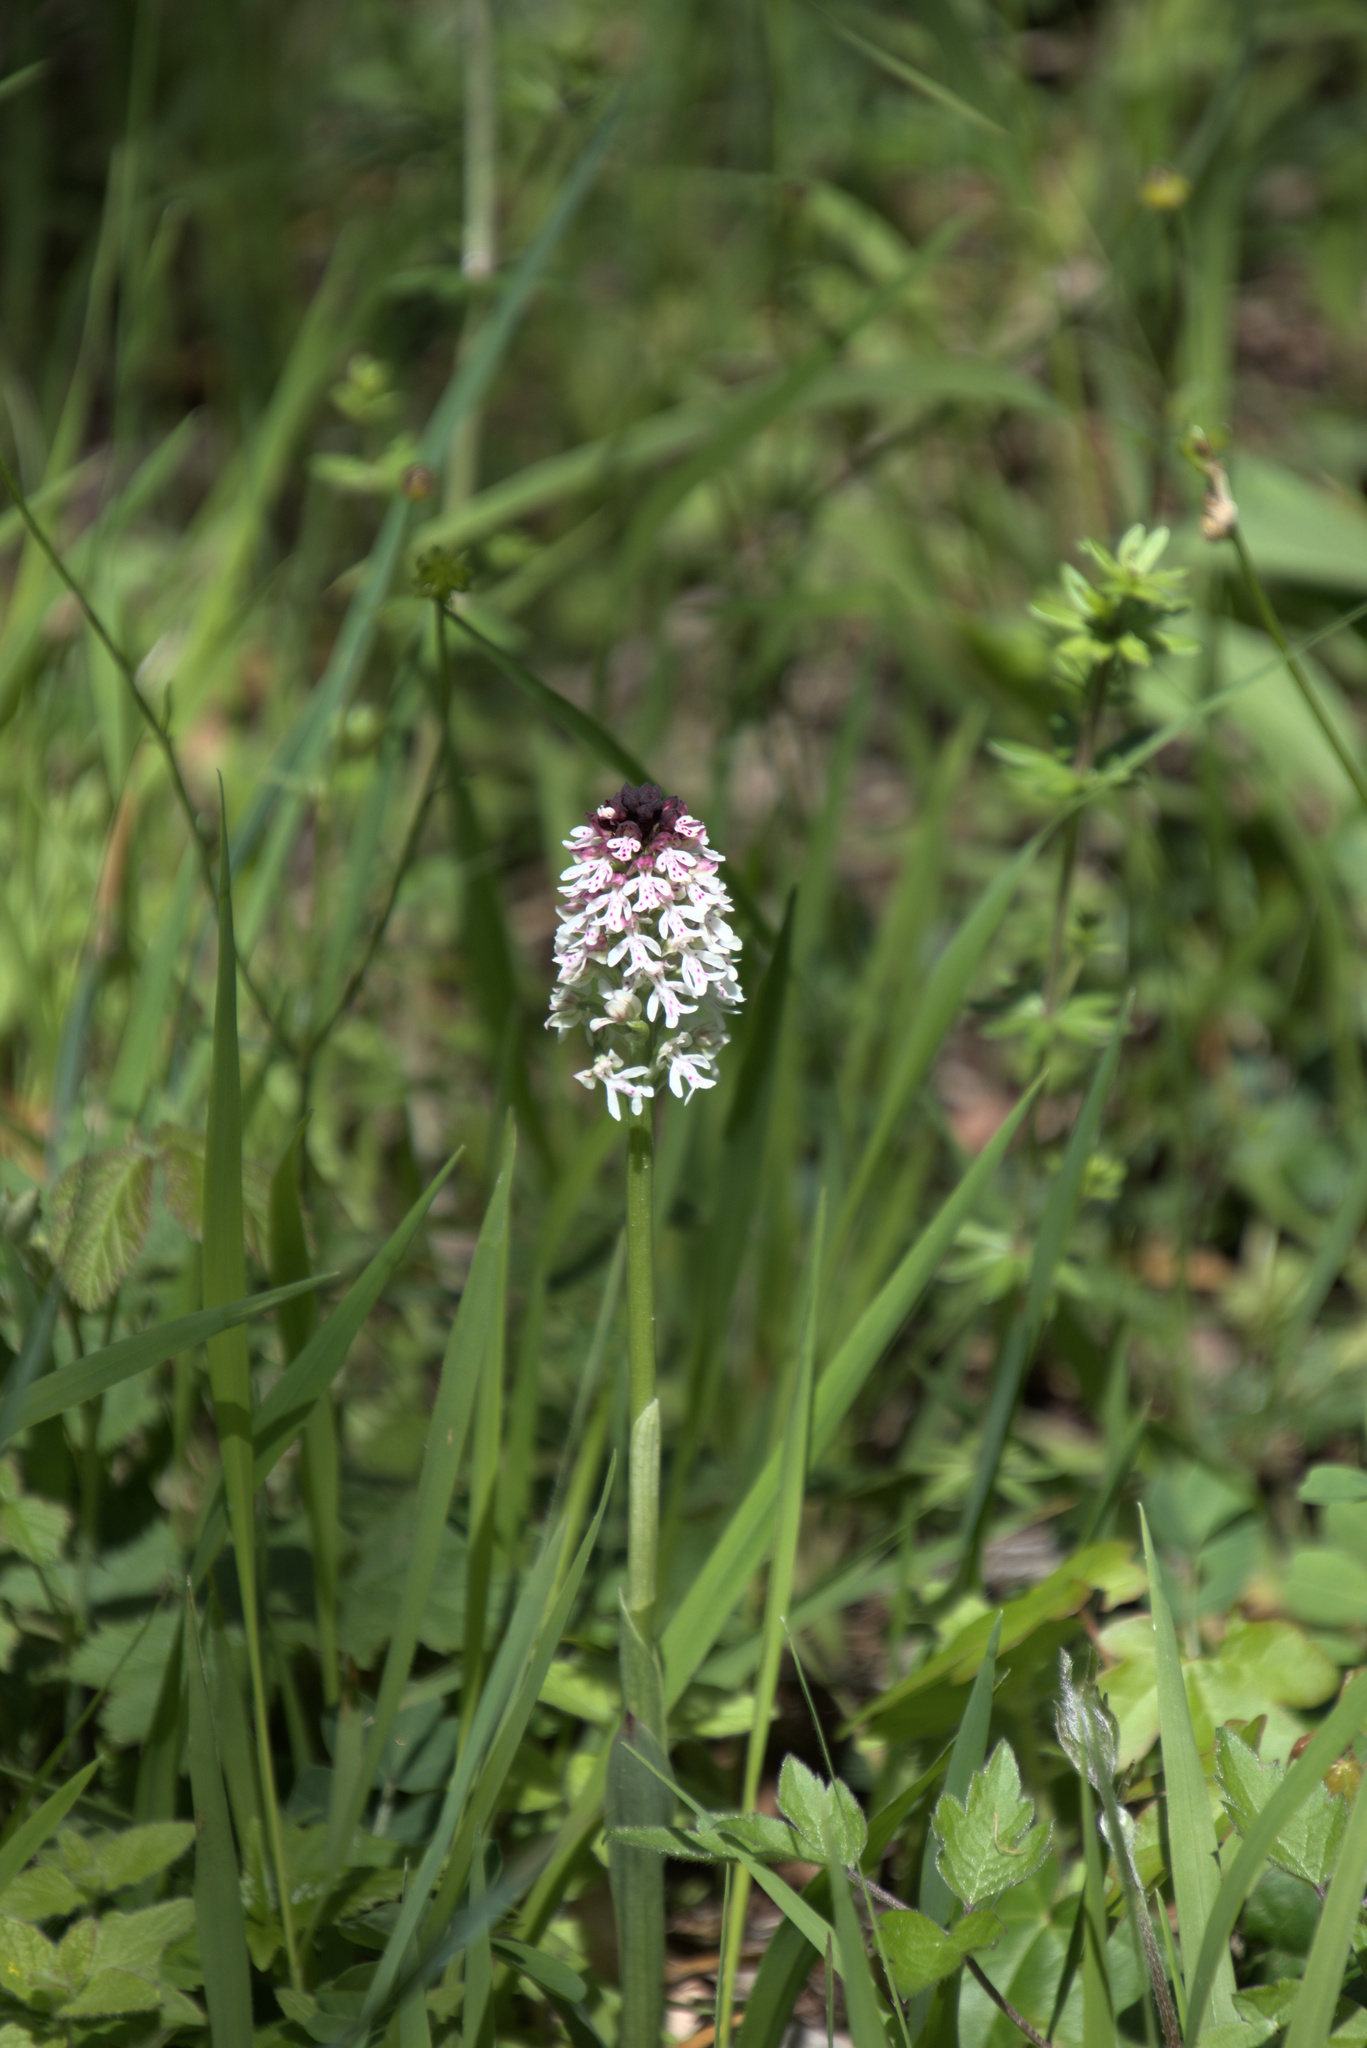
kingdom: Plantae
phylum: Tracheophyta
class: Liliopsida
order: Asparagales
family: Orchidaceae
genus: Neotinea
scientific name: Neotinea ustulata
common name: Burnt orchid
